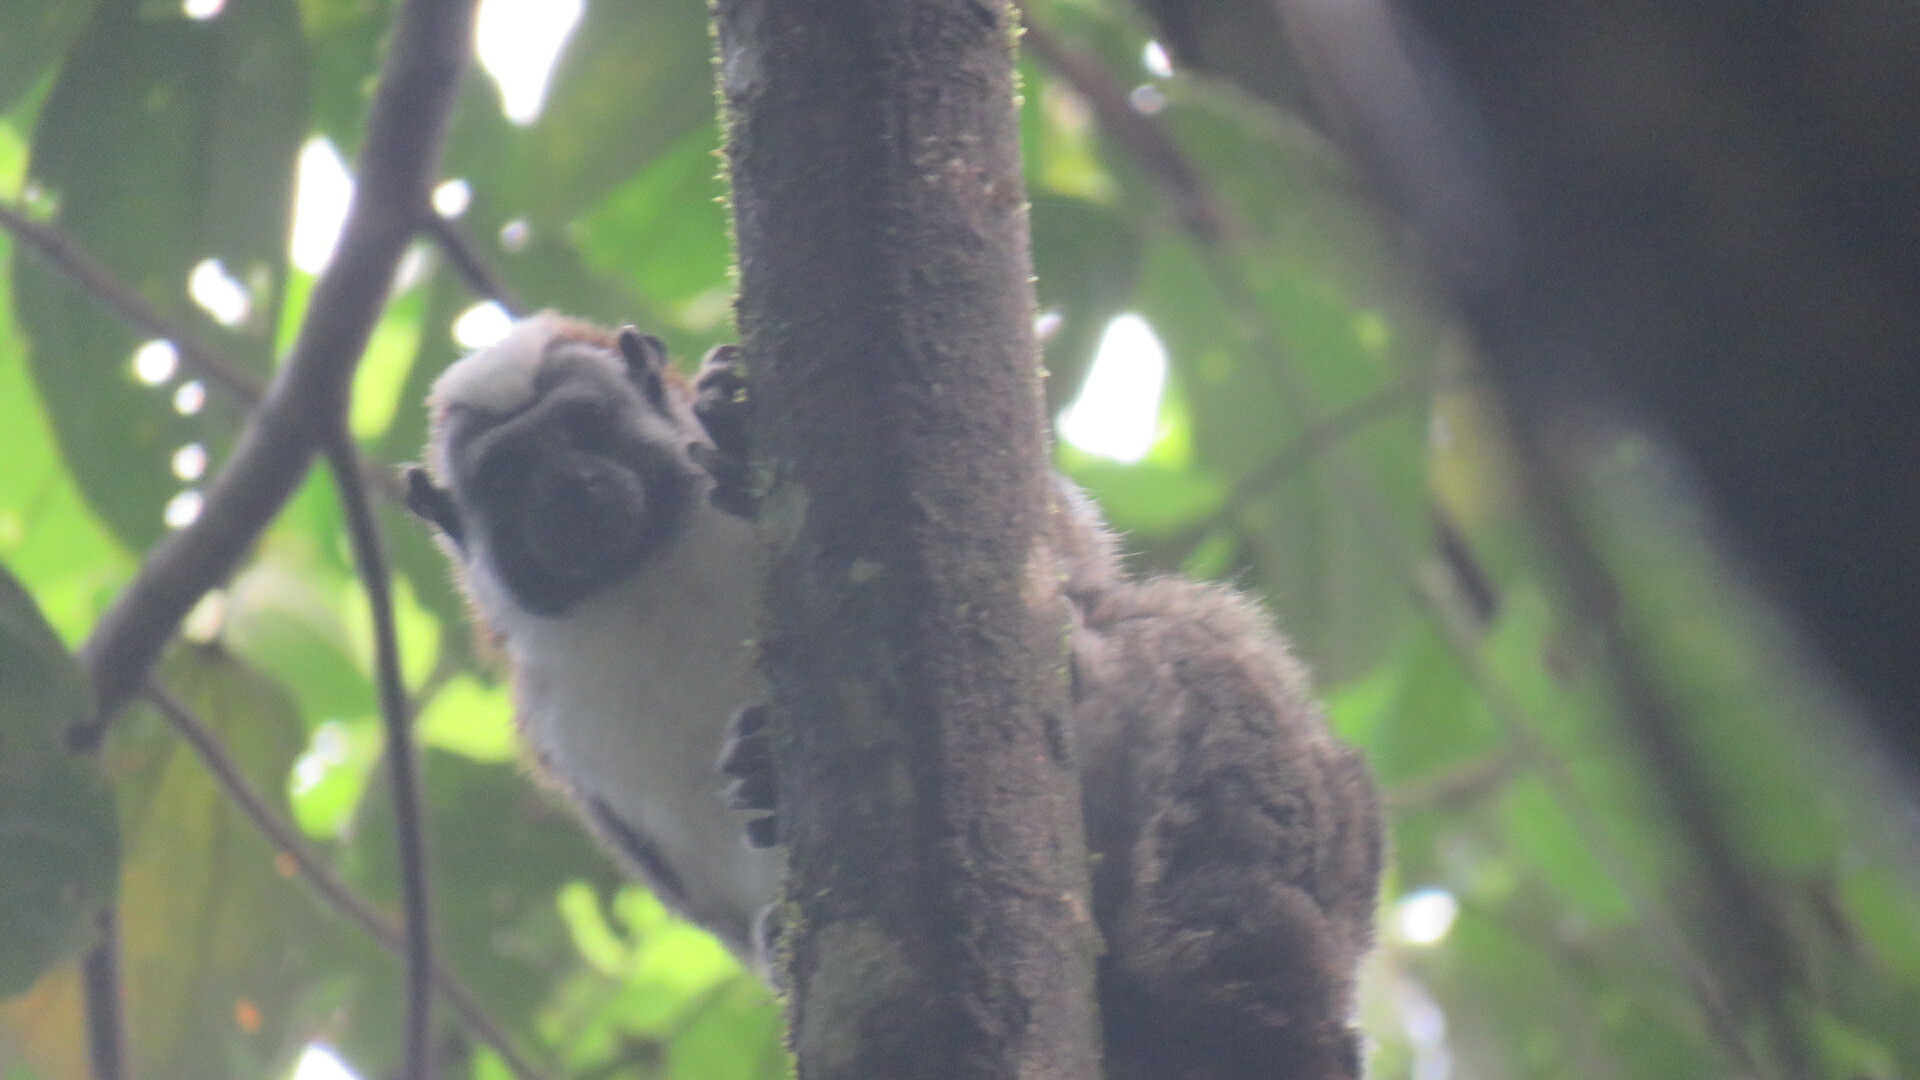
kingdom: Animalia
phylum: Chordata
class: Mammalia
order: Primates
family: Callitrichidae
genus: Saguinus
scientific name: Saguinus geoffroyi
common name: Geoffroy s tamarin
